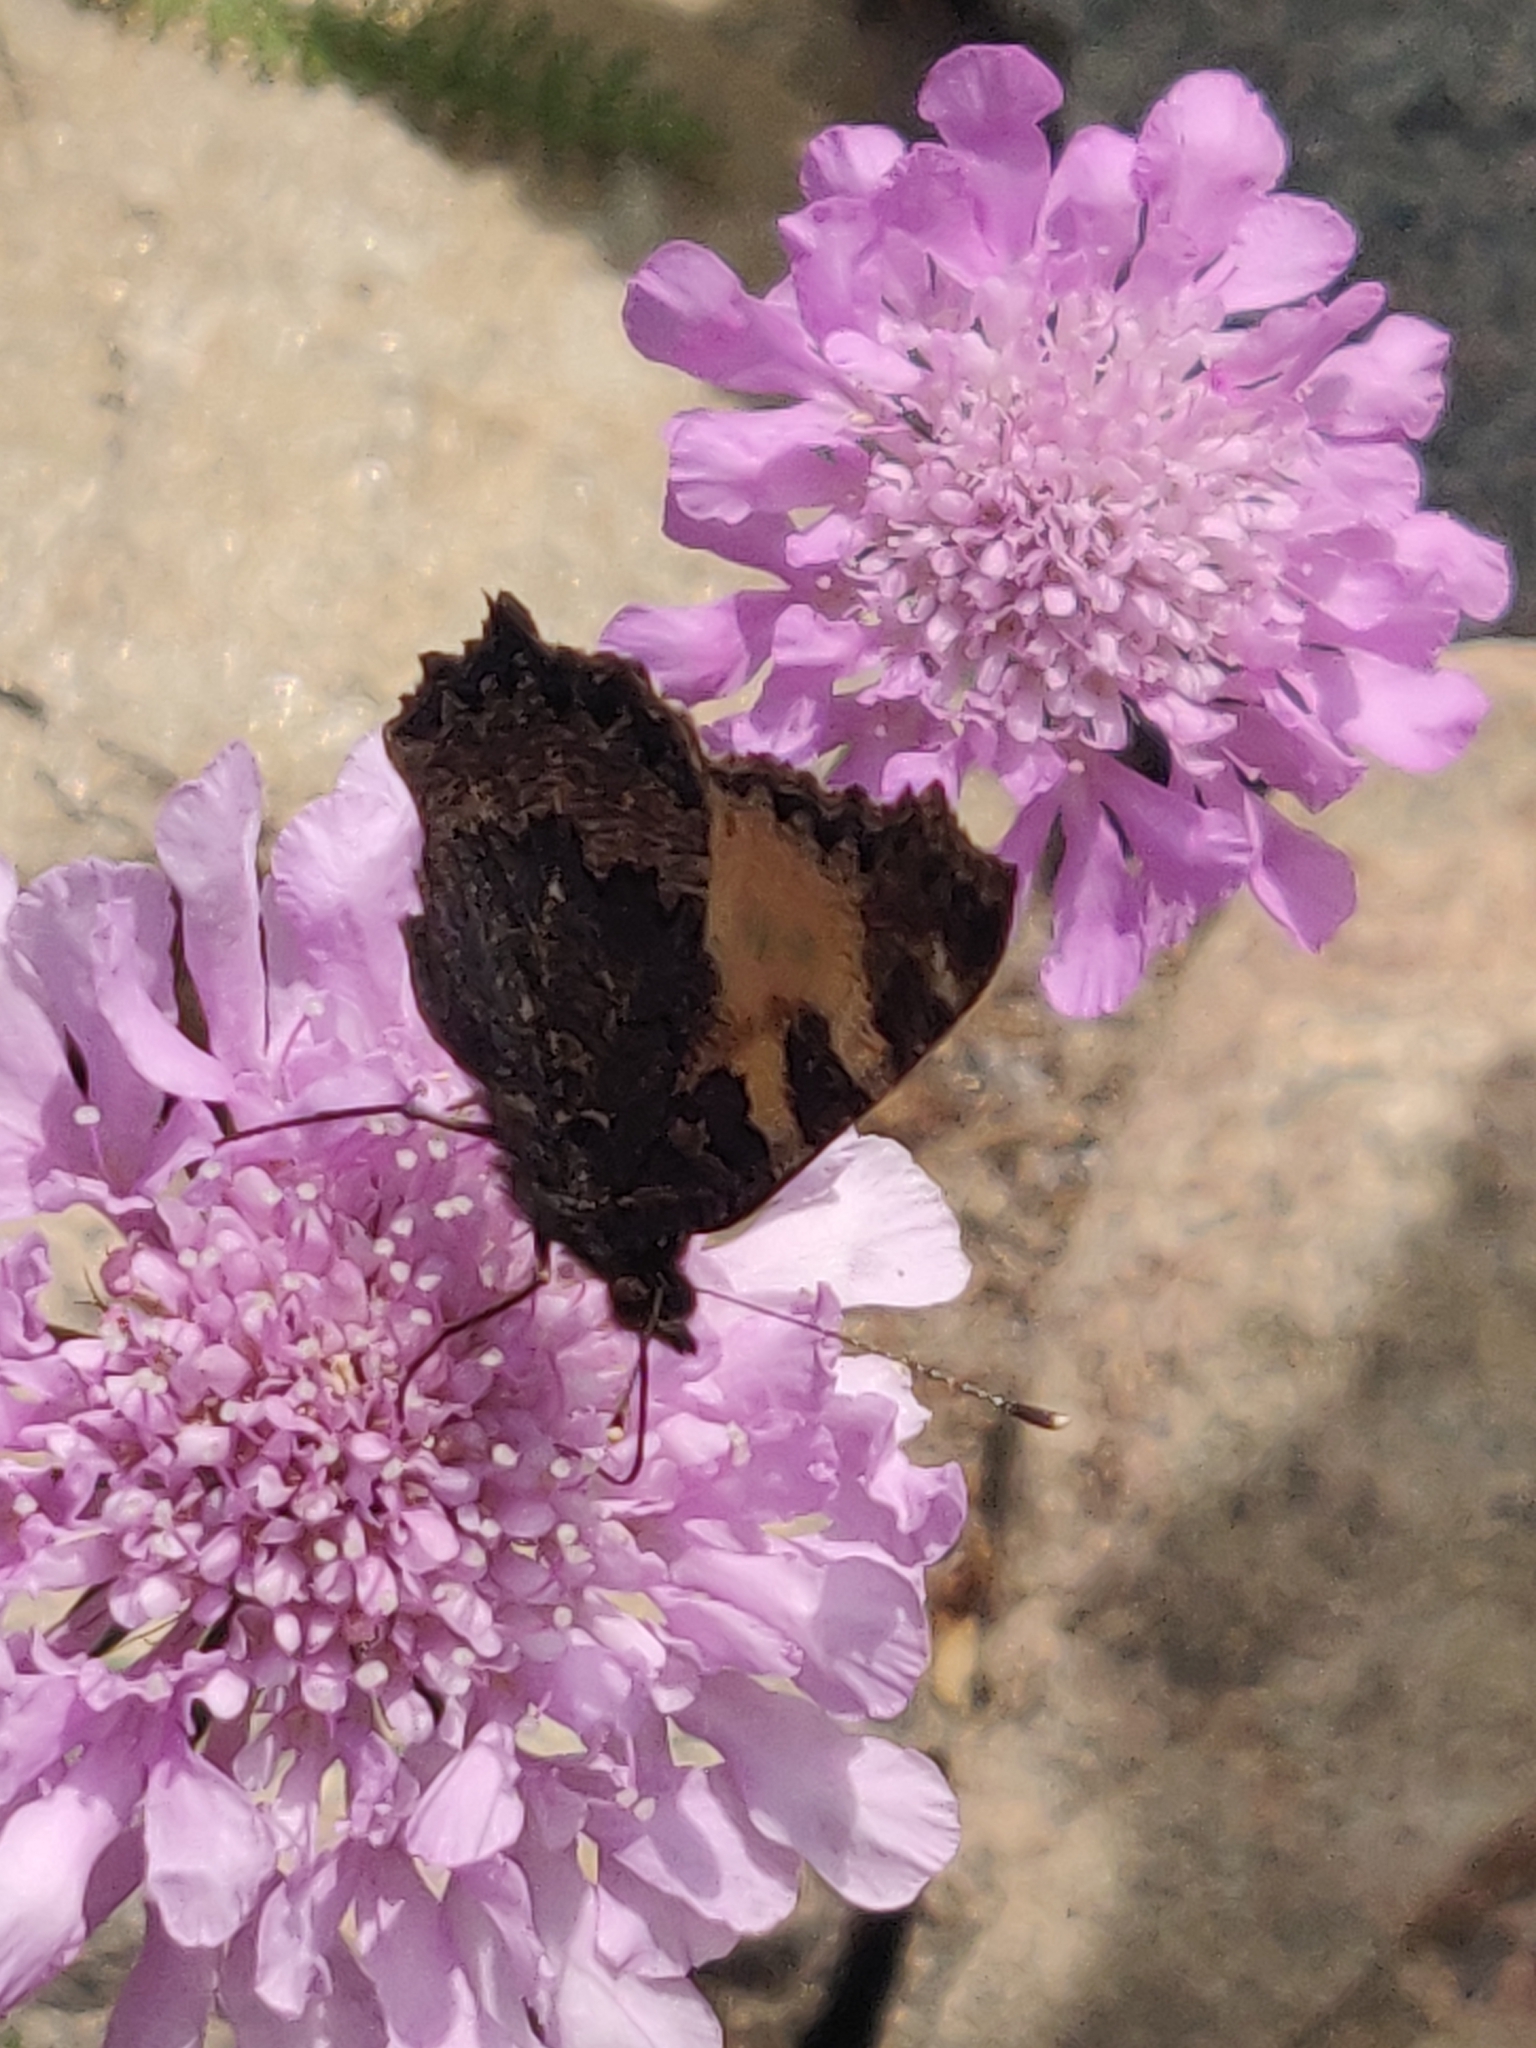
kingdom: Animalia
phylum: Arthropoda
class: Insecta
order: Lepidoptera
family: Nymphalidae
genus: Aglais
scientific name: Aglais urticae
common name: Small tortoiseshell
